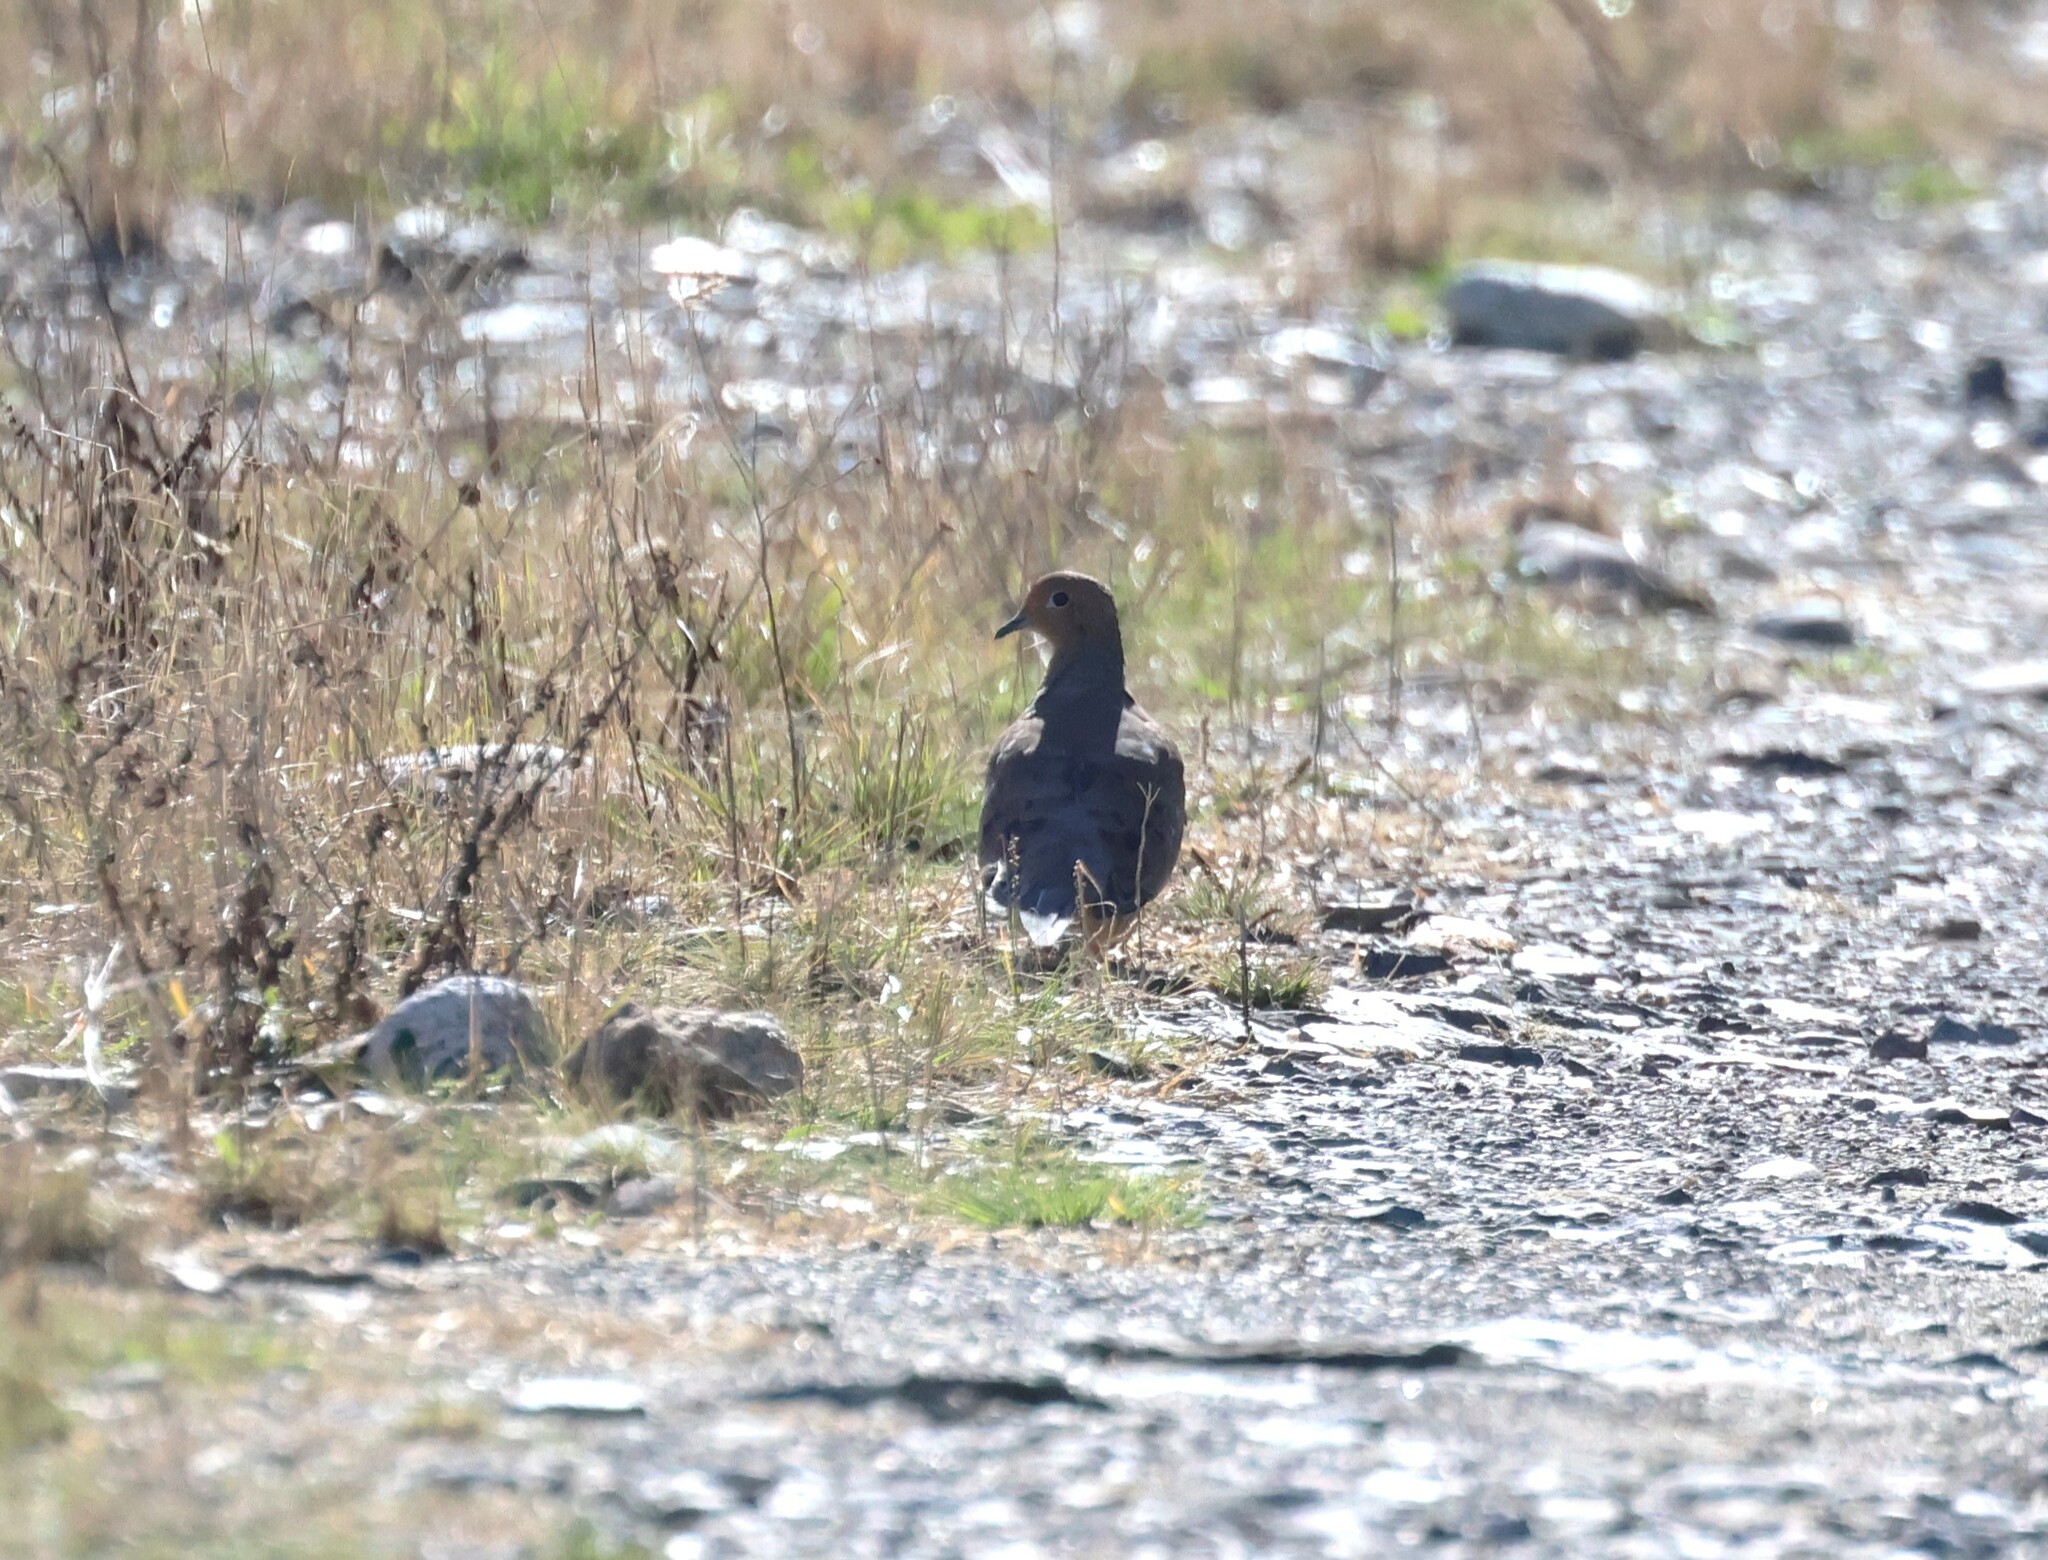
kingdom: Animalia
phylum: Chordata
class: Aves
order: Columbiformes
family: Columbidae
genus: Zenaida
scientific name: Zenaida macroura
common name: Mourning dove
